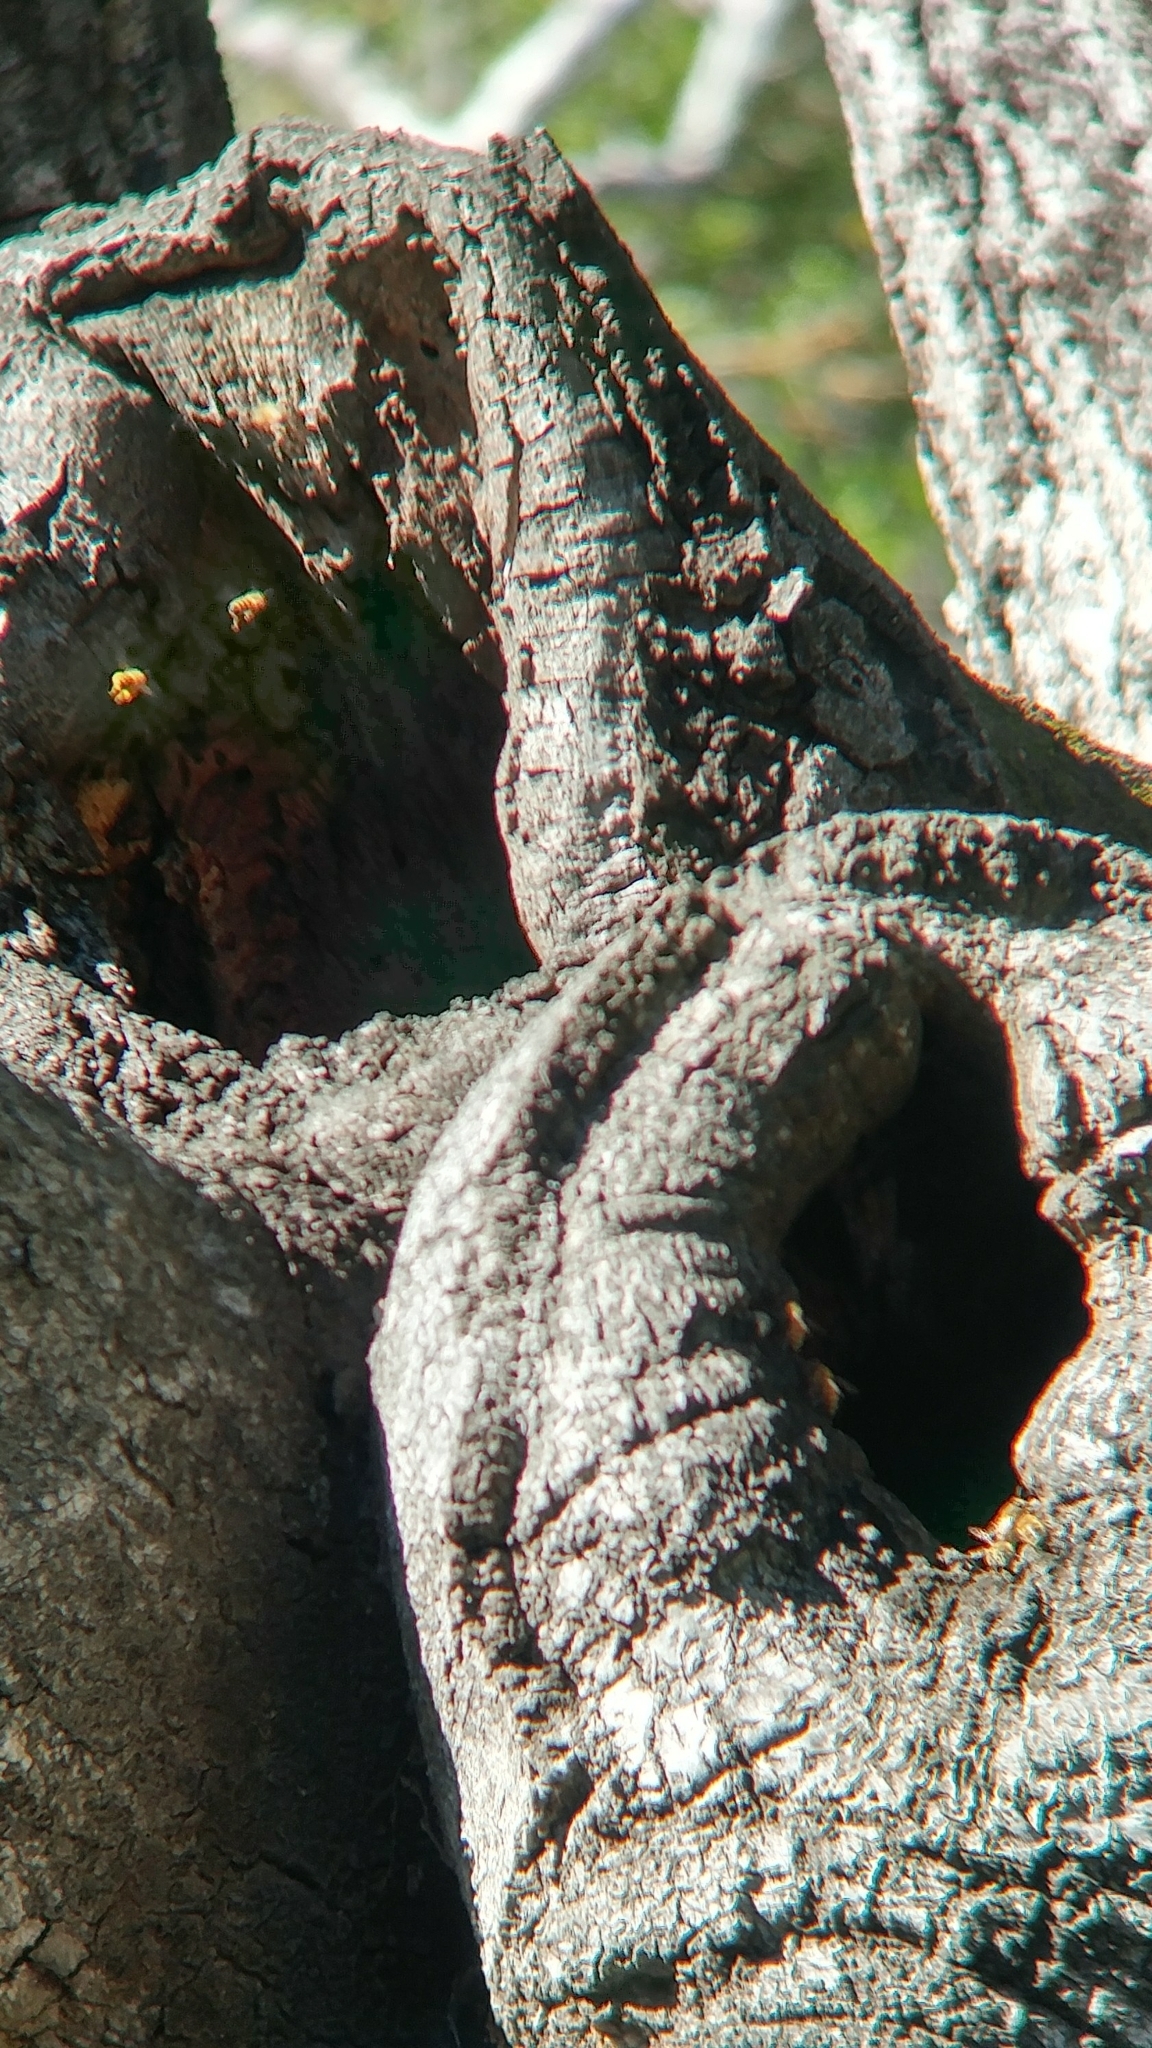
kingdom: Animalia
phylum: Arthropoda
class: Insecta
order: Hymenoptera
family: Apidae
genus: Apis
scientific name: Apis mellifera
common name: Honey bee
